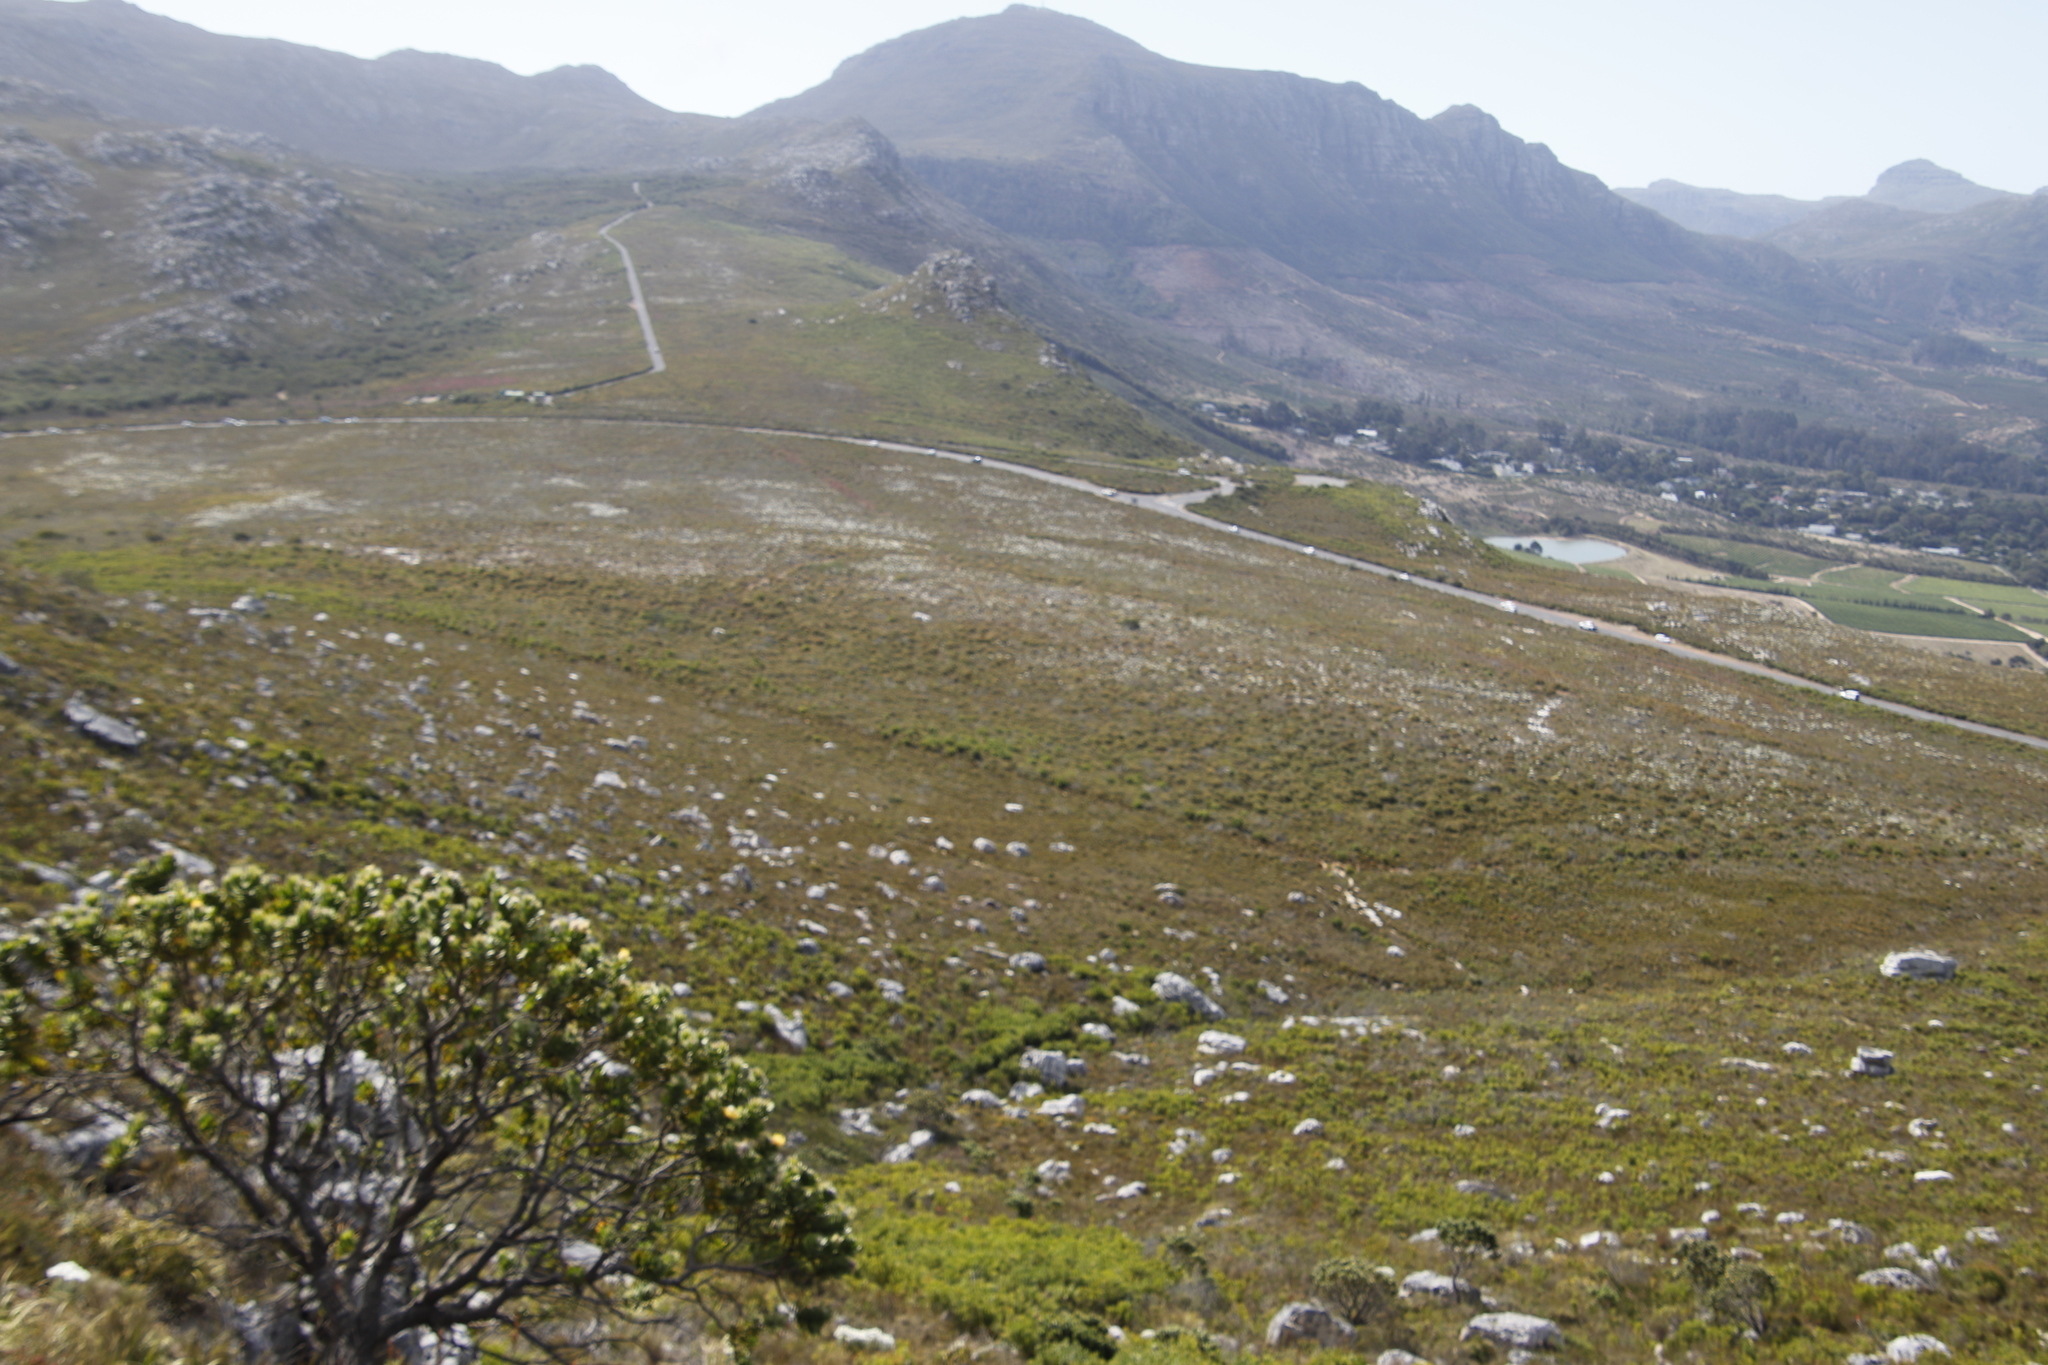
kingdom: Plantae
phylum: Tracheophyta
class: Magnoliopsida
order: Proteales
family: Proteaceae
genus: Leucadendron
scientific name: Leucadendron laureolum
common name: Golden sunshinebush
